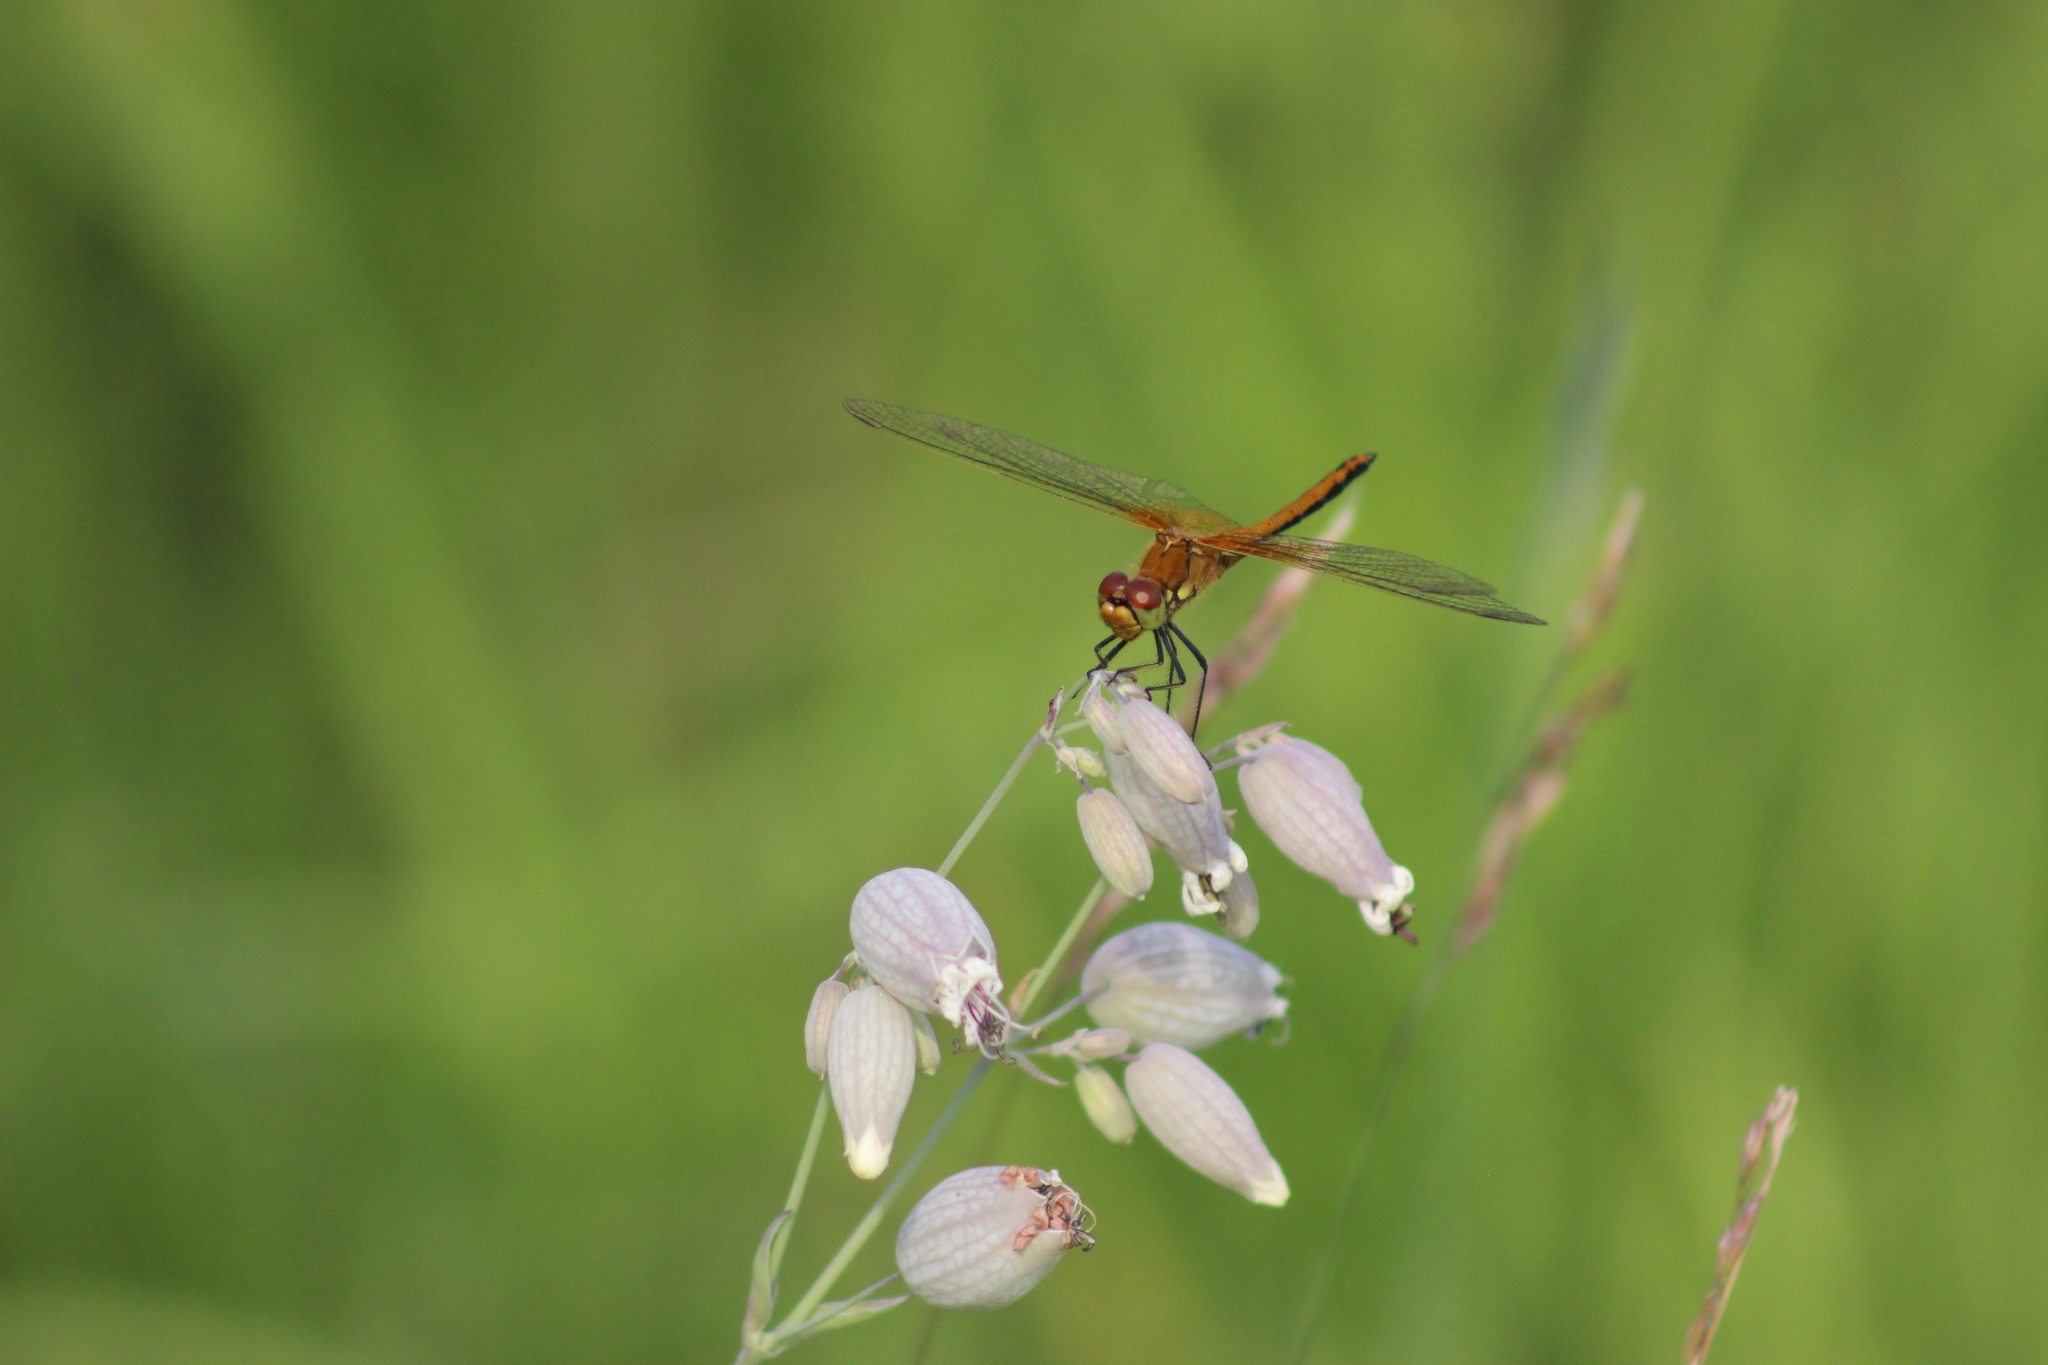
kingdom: Animalia
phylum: Arthropoda
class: Insecta
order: Odonata
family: Libellulidae
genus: Sympetrum
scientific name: Sympetrum flaveolum
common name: Yellow-winged darter
